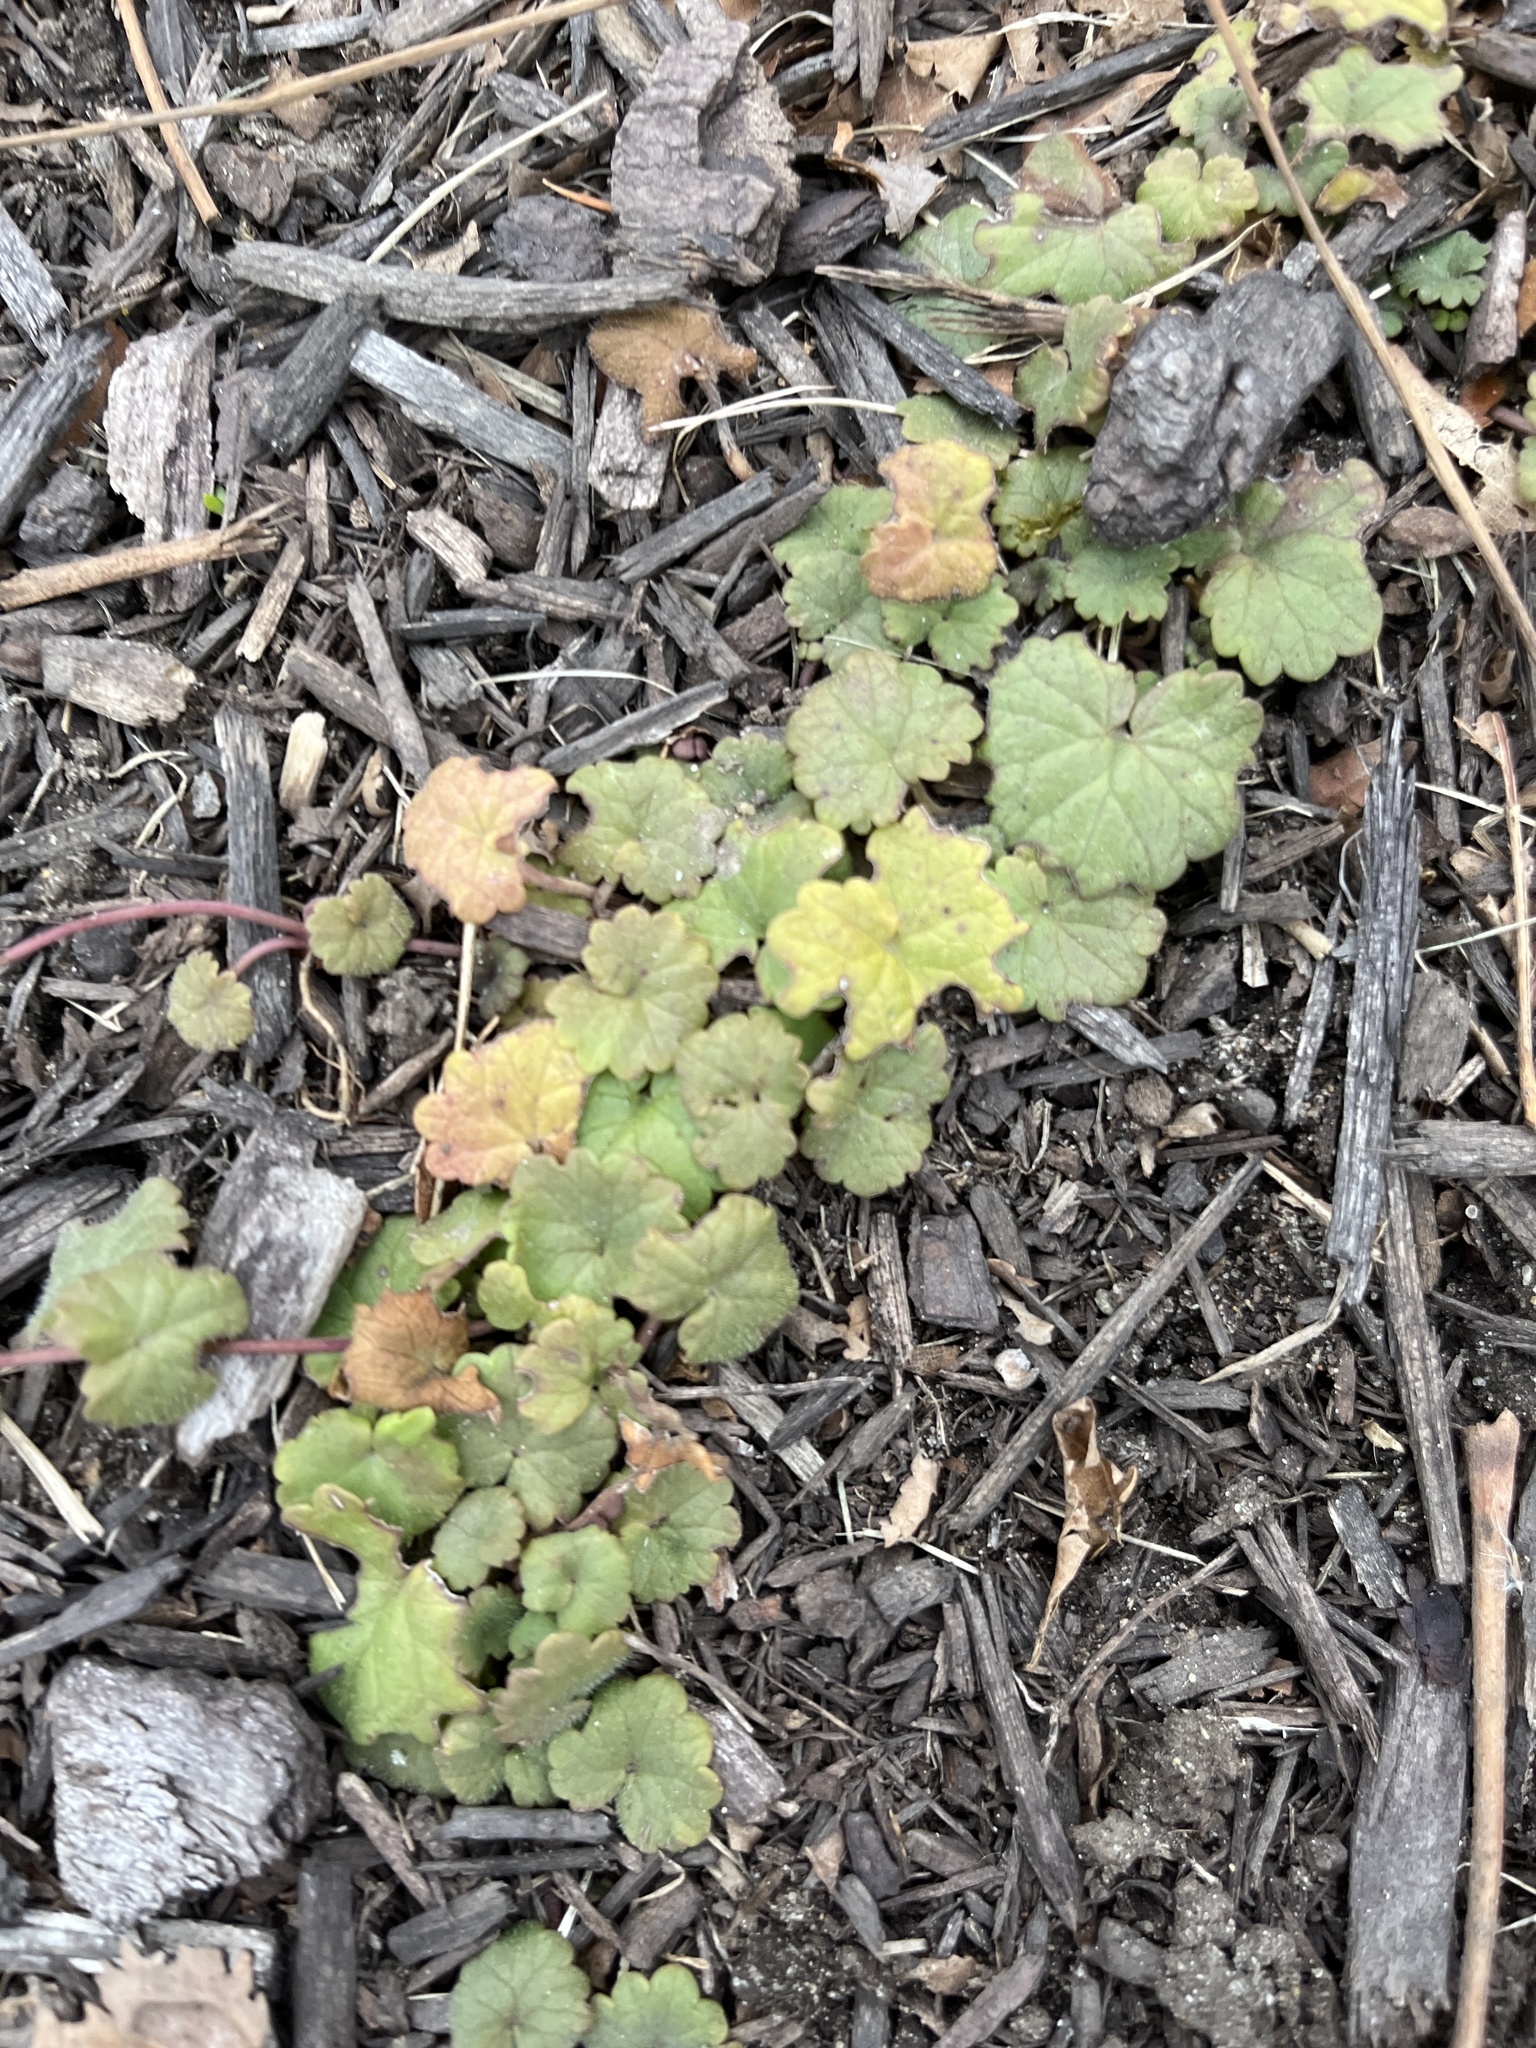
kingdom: Plantae
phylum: Tracheophyta
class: Magnoliopsida
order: Lamiales
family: Lamiaceae
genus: Glechoma
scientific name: Glechoma hederacea
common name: Ground ivy
